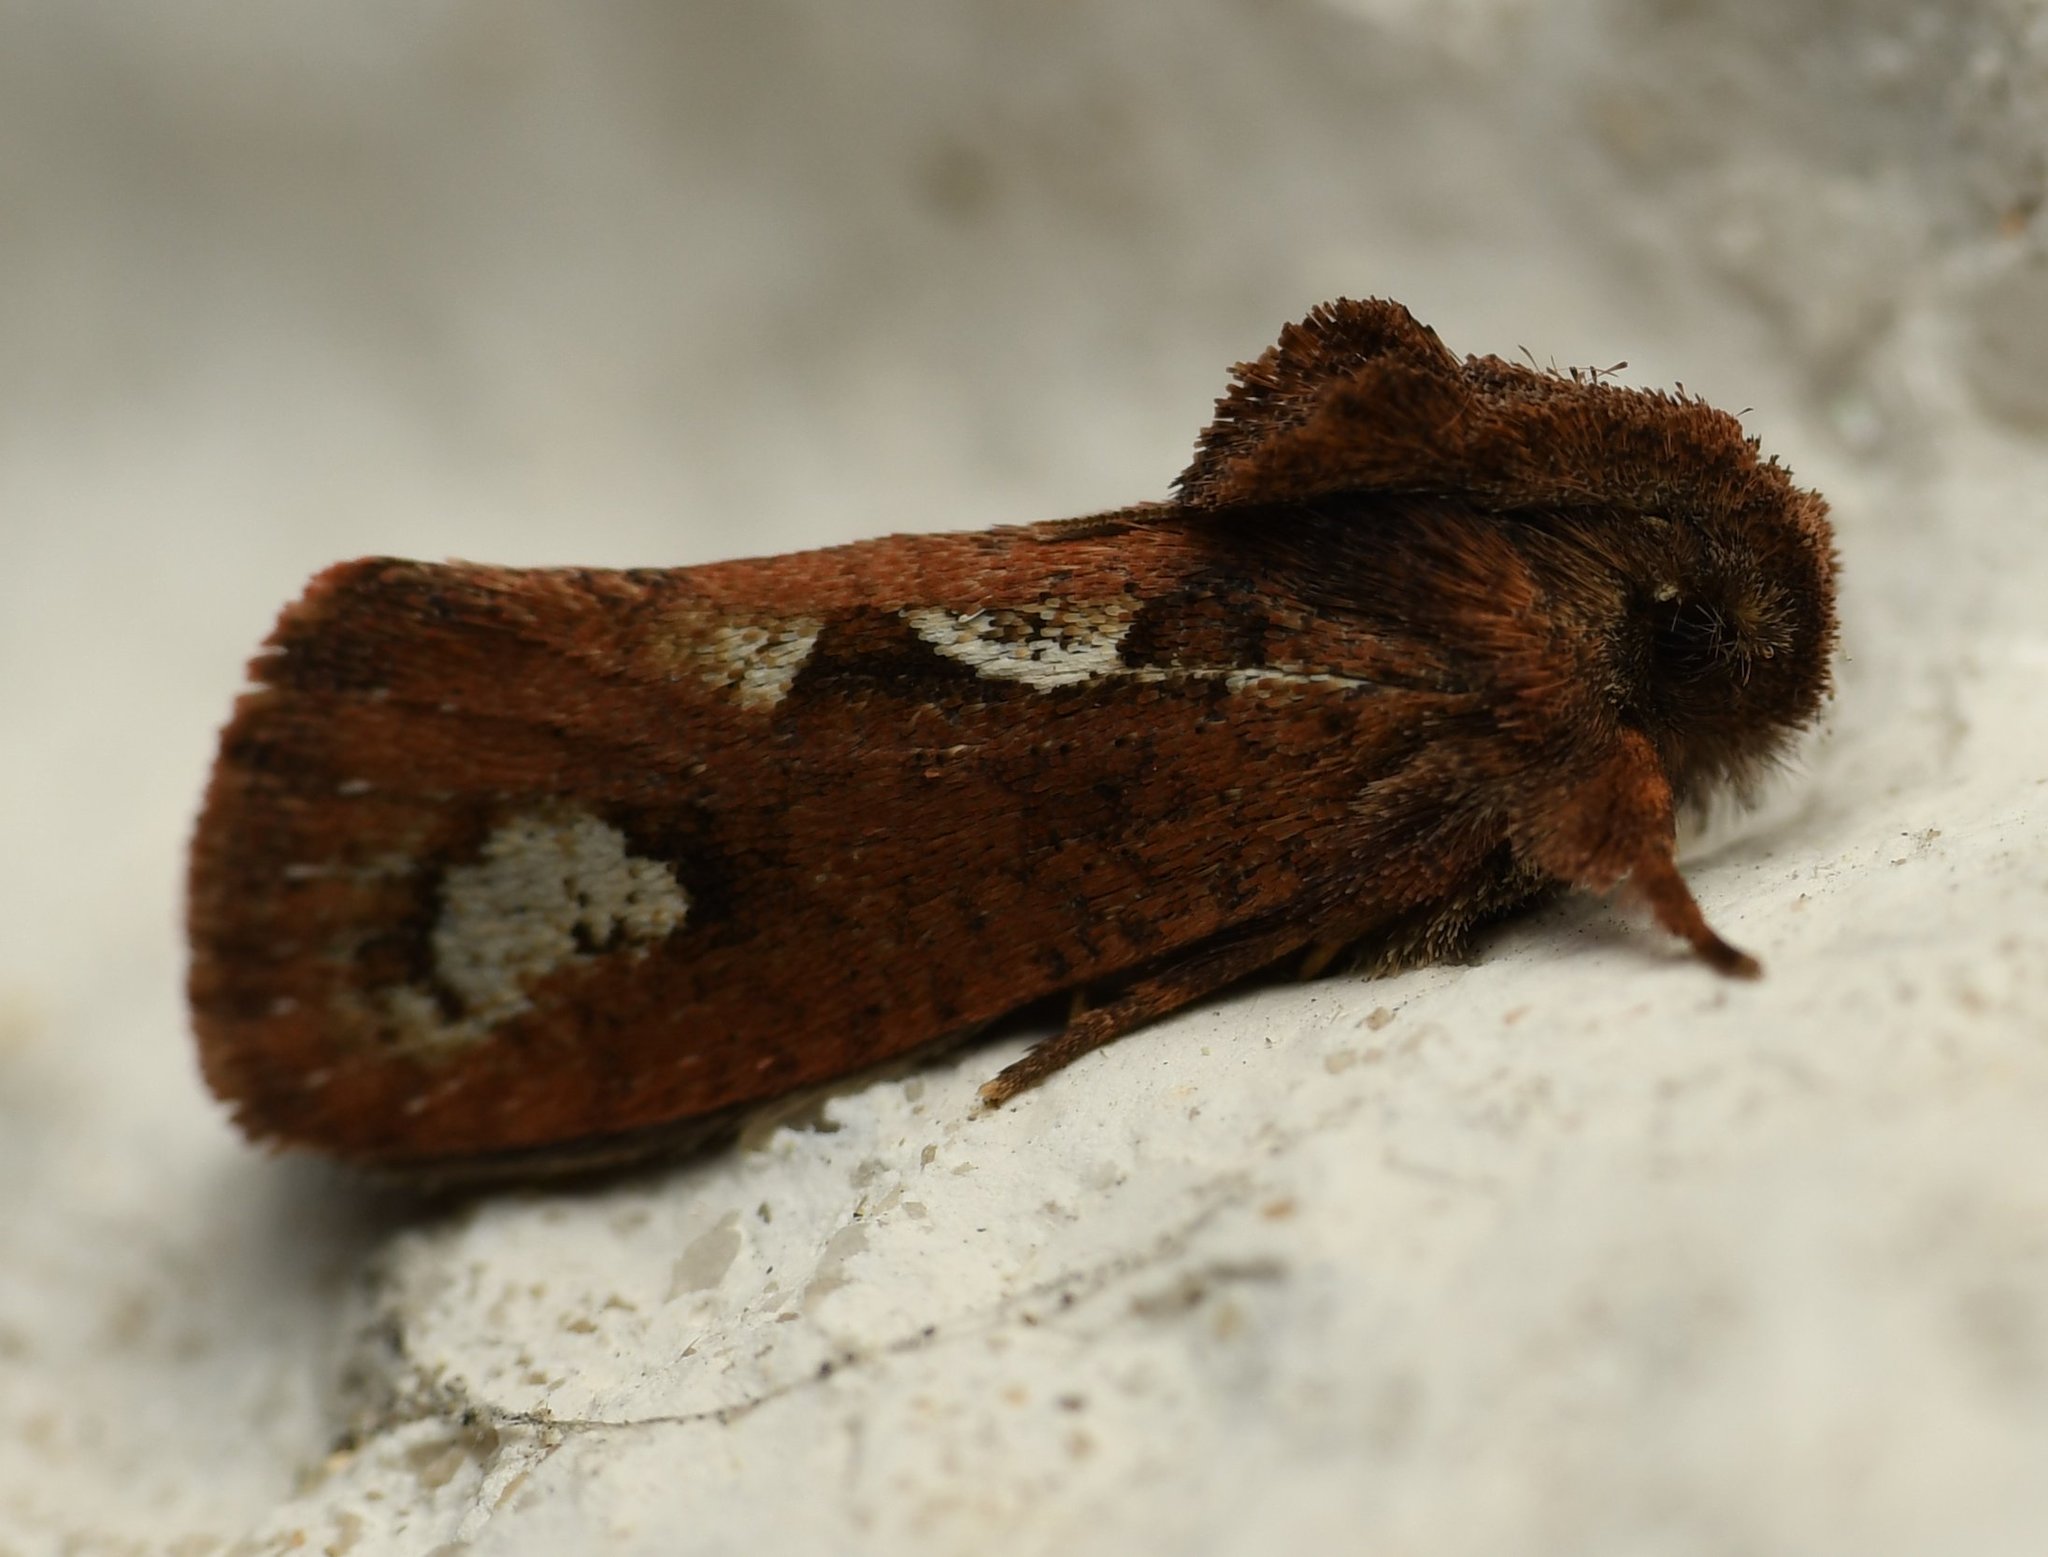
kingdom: Animalia
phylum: Arthropoda
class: Insecta
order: Lepidoptera
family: Tineidae
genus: Acrolophus
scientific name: Acrolophus walsinghami
